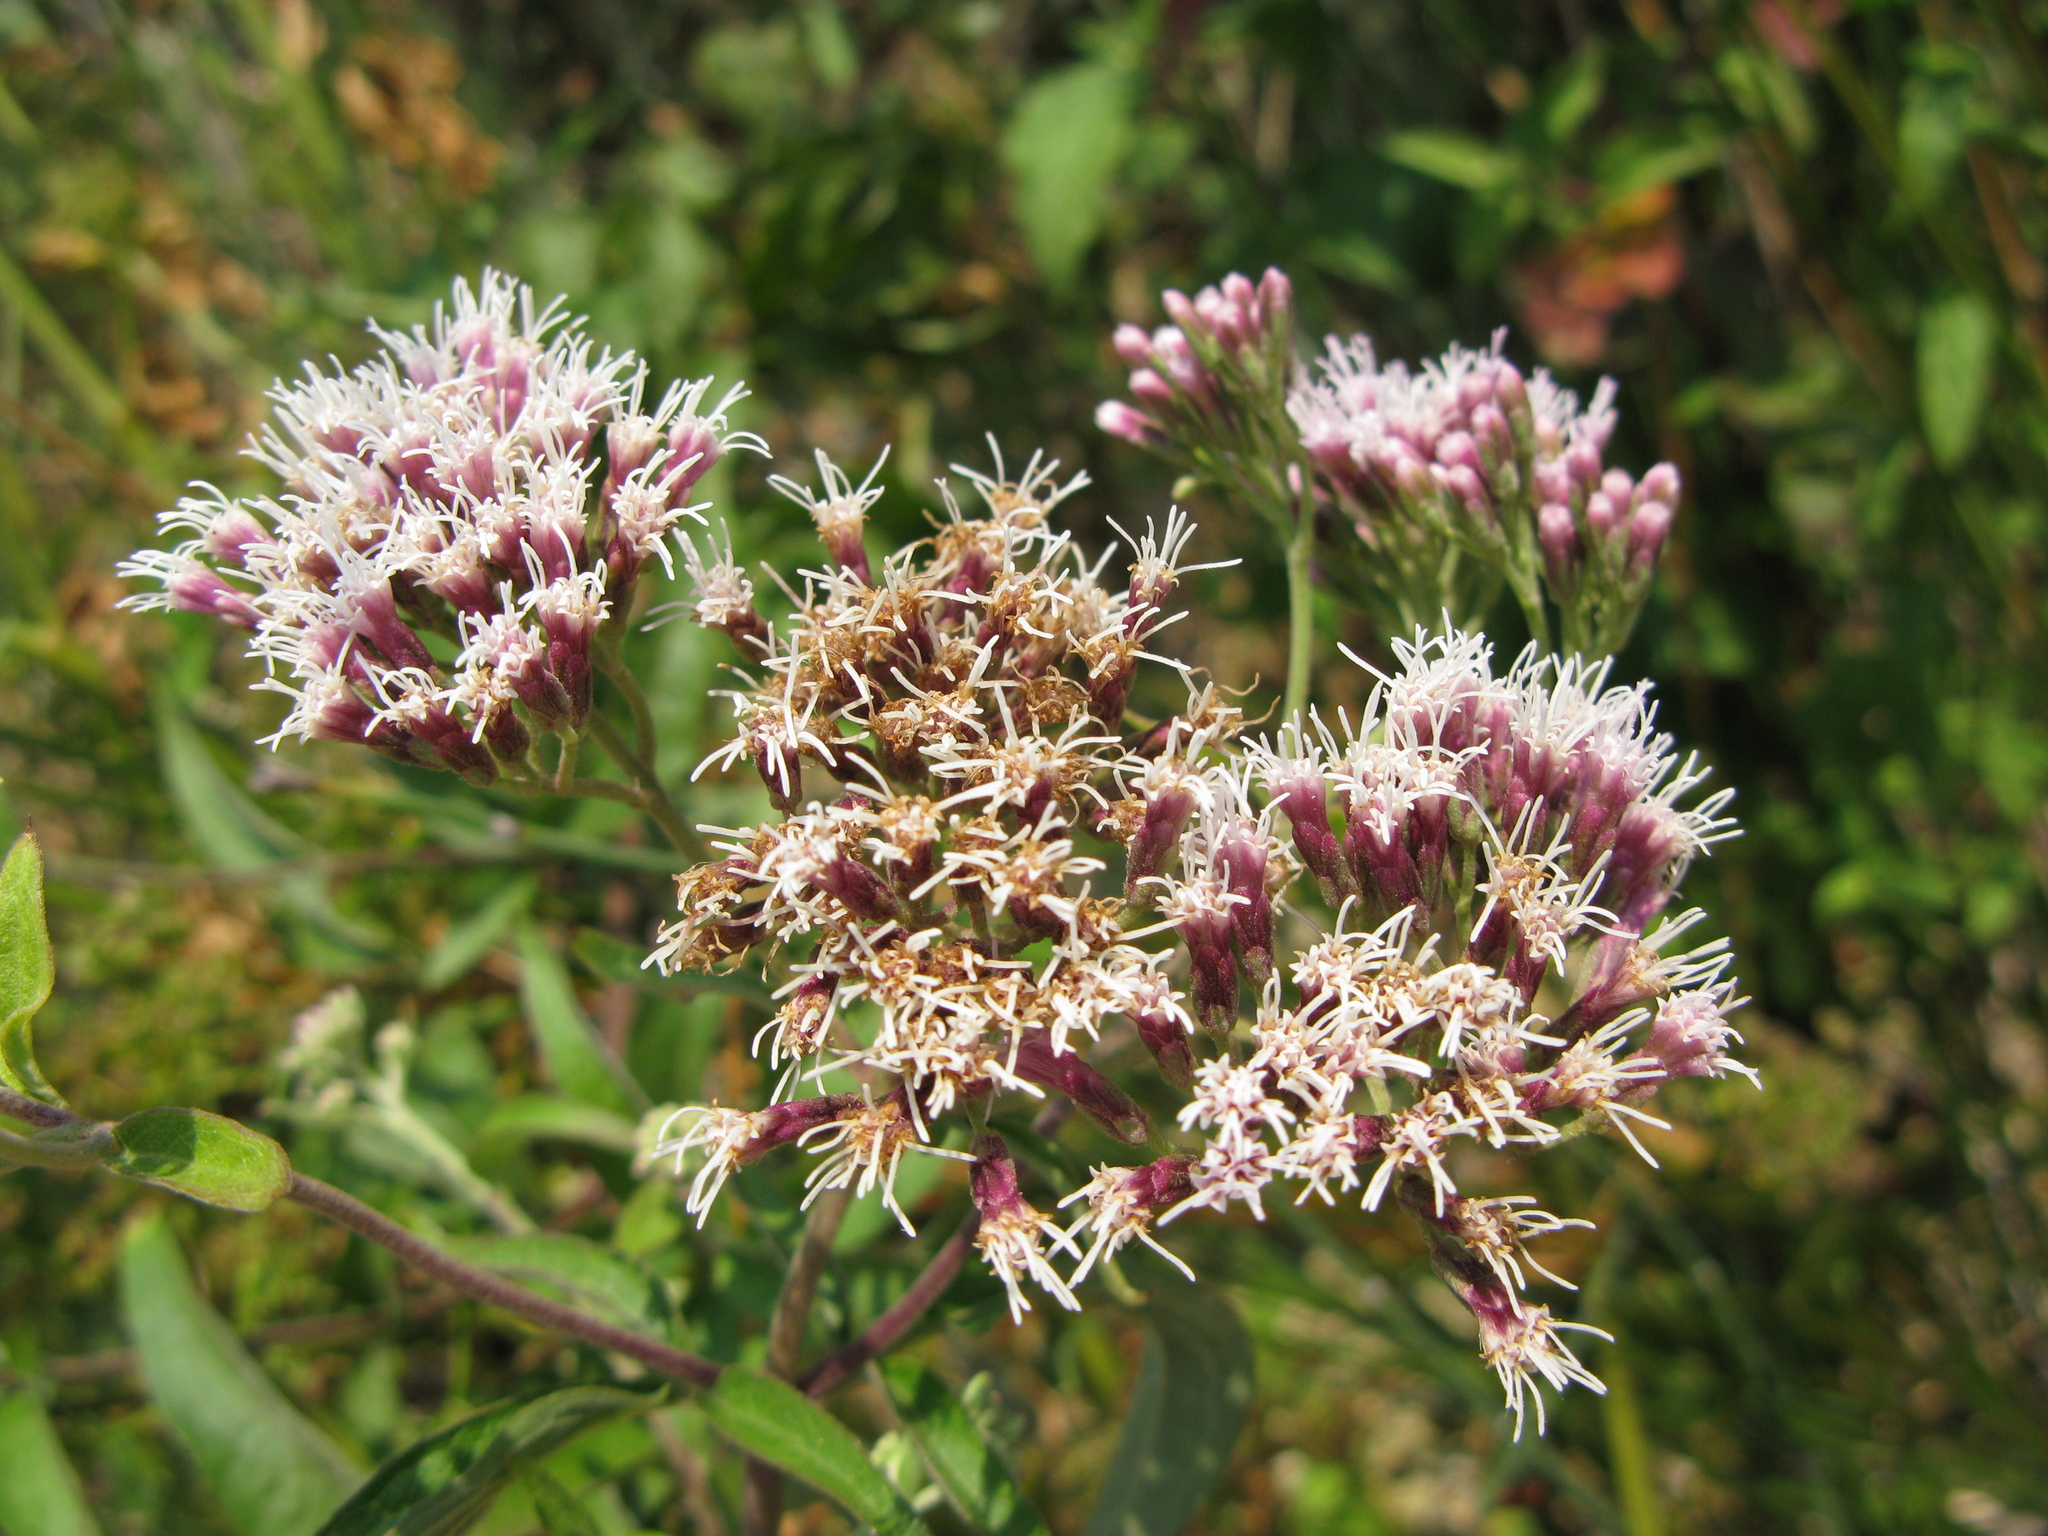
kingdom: Plantae
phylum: Tracheophyta
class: Magnoliopsida
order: Asterales
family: Asteraceae
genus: Eupatorium
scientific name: Eupatorium cannabinum
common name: Hemp-agrimony
